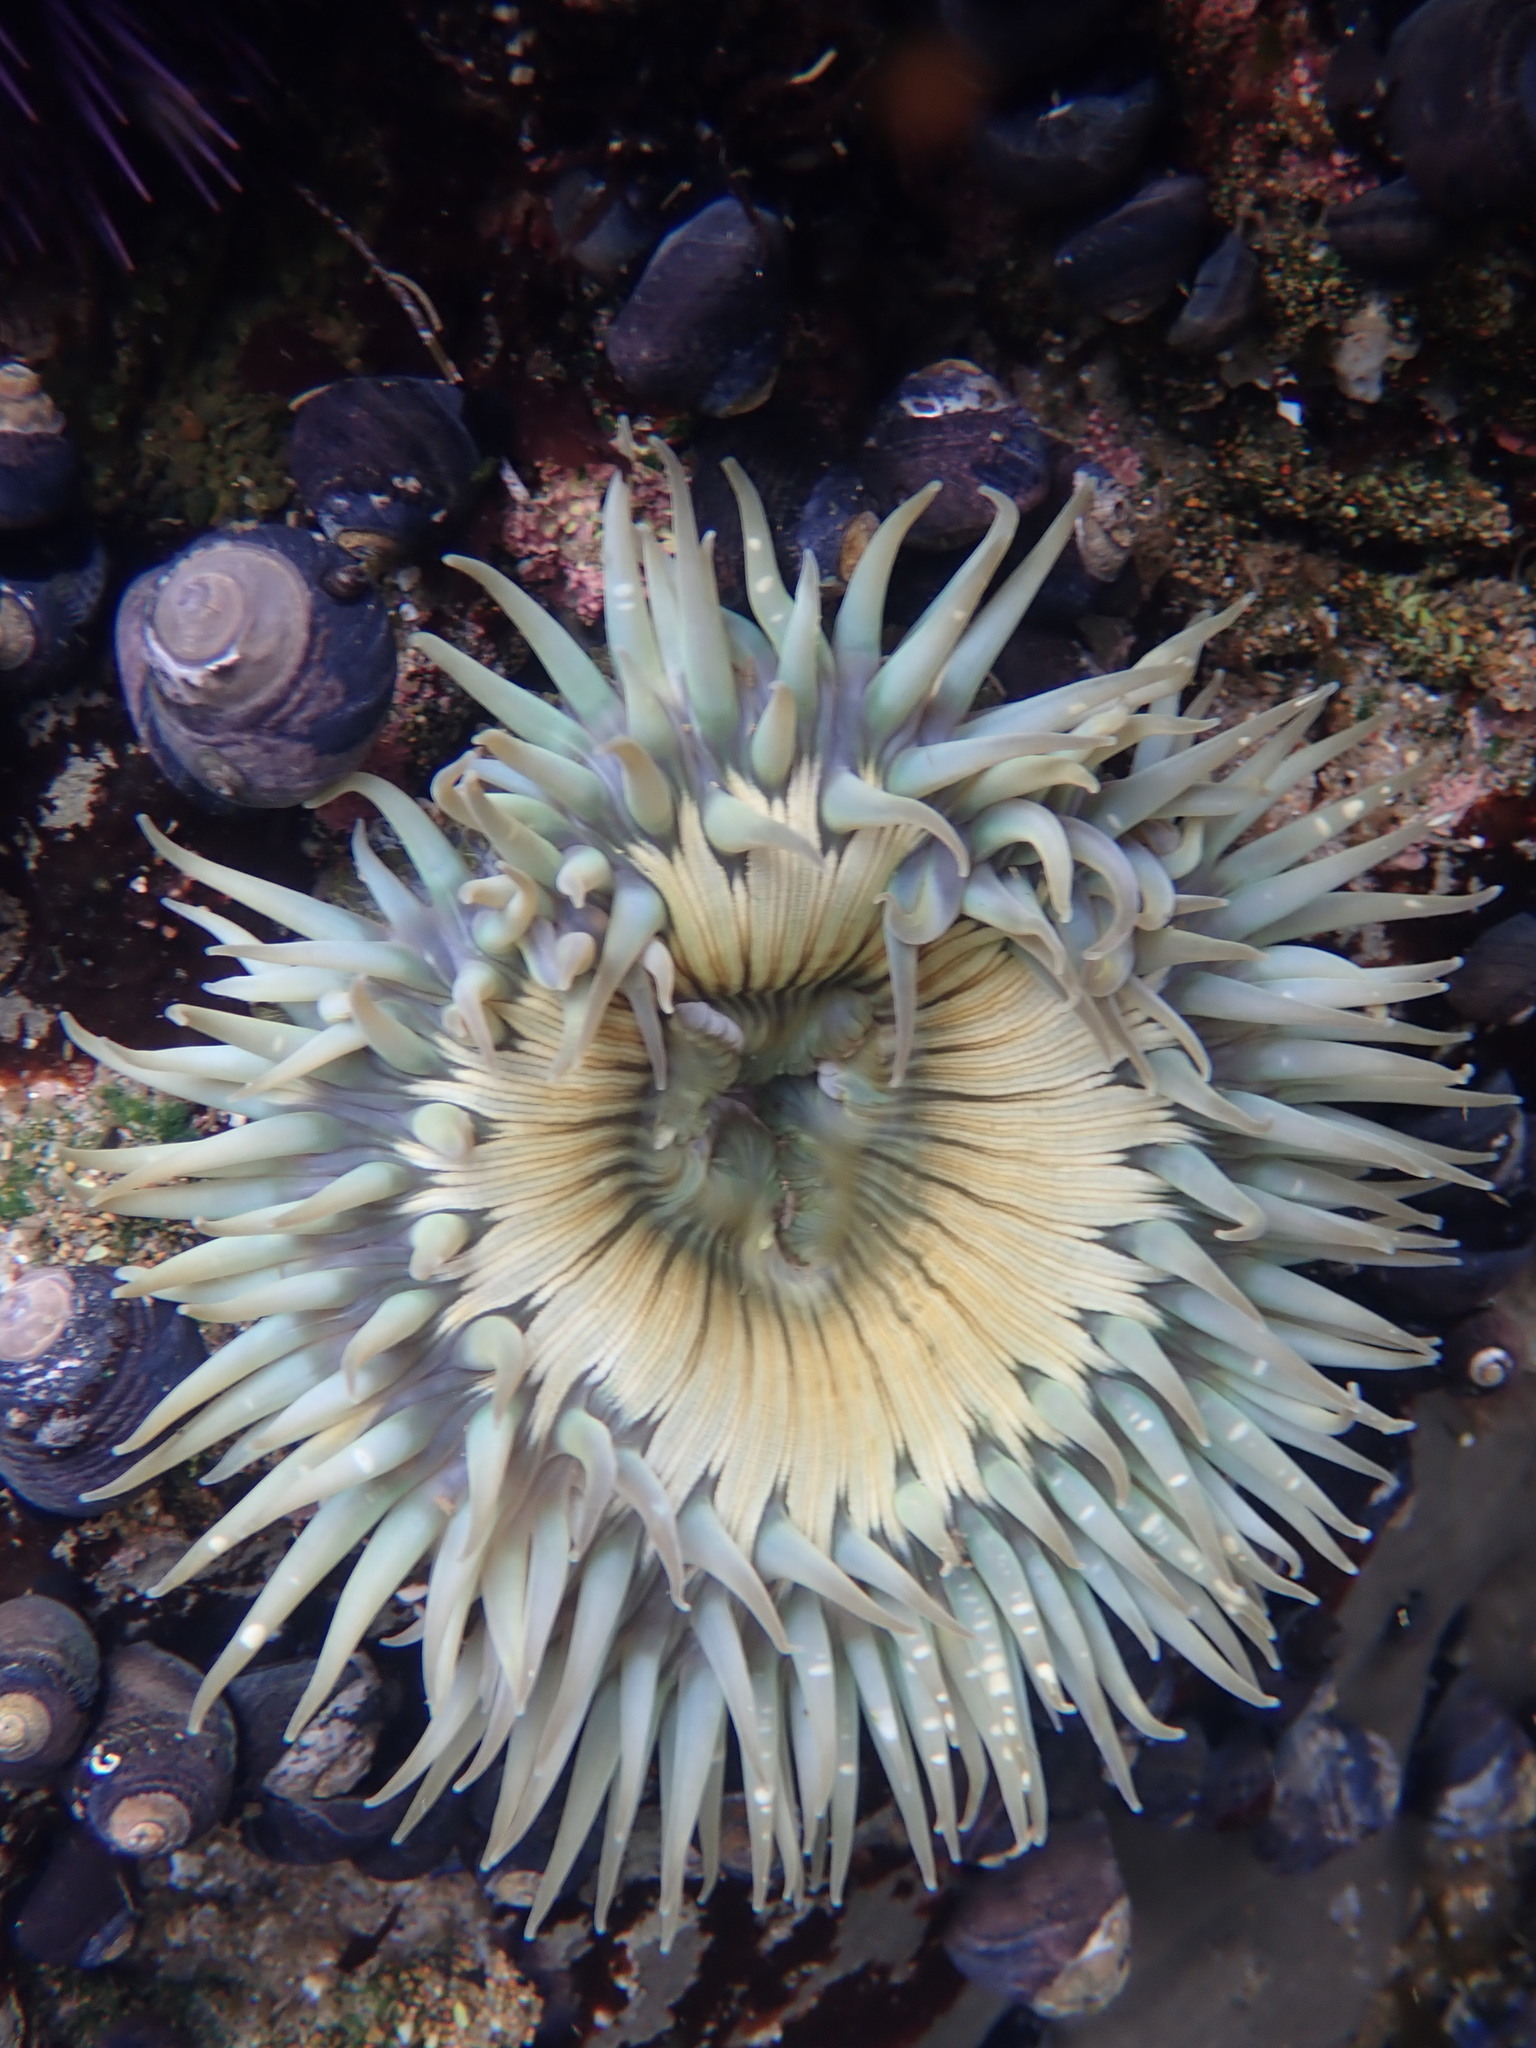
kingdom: Animalia
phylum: Cnidaria
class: Anthozoa
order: Actiniaria
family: Actiniidae
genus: Anthopleura
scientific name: Anthopleura sola
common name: Sun anemone
